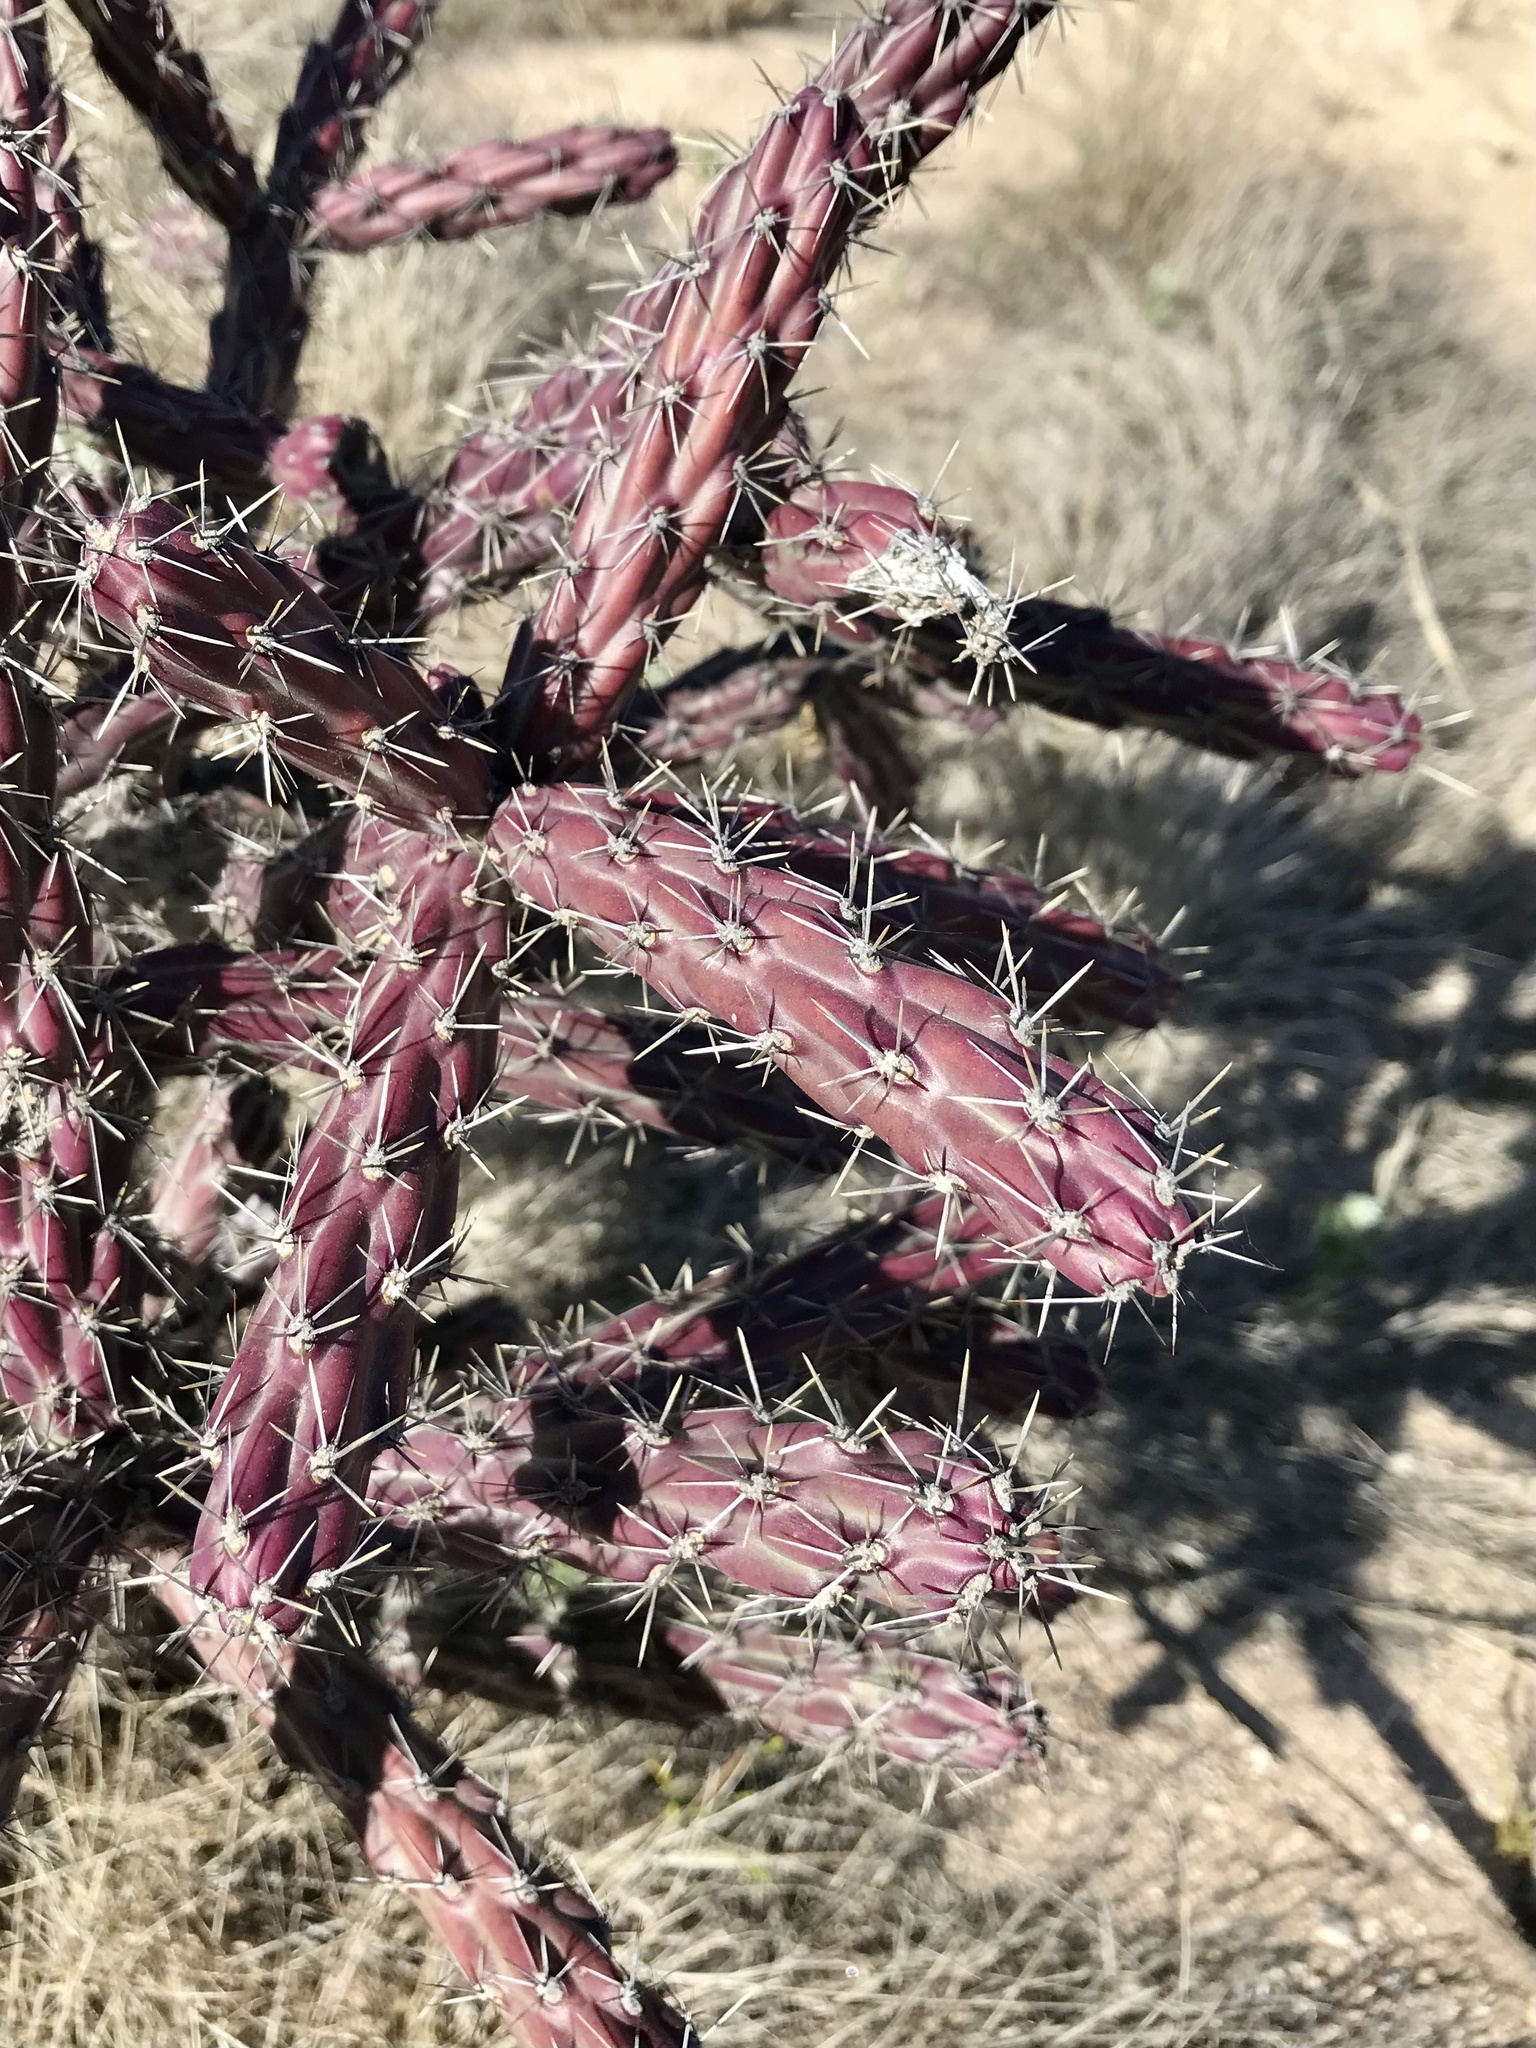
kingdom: Plantae
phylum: Tracheophyta
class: Magnoliopsida
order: Caryophyllales
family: Cactaceae
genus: Cylindropuntia
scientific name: Cylindropuntia thurberi
